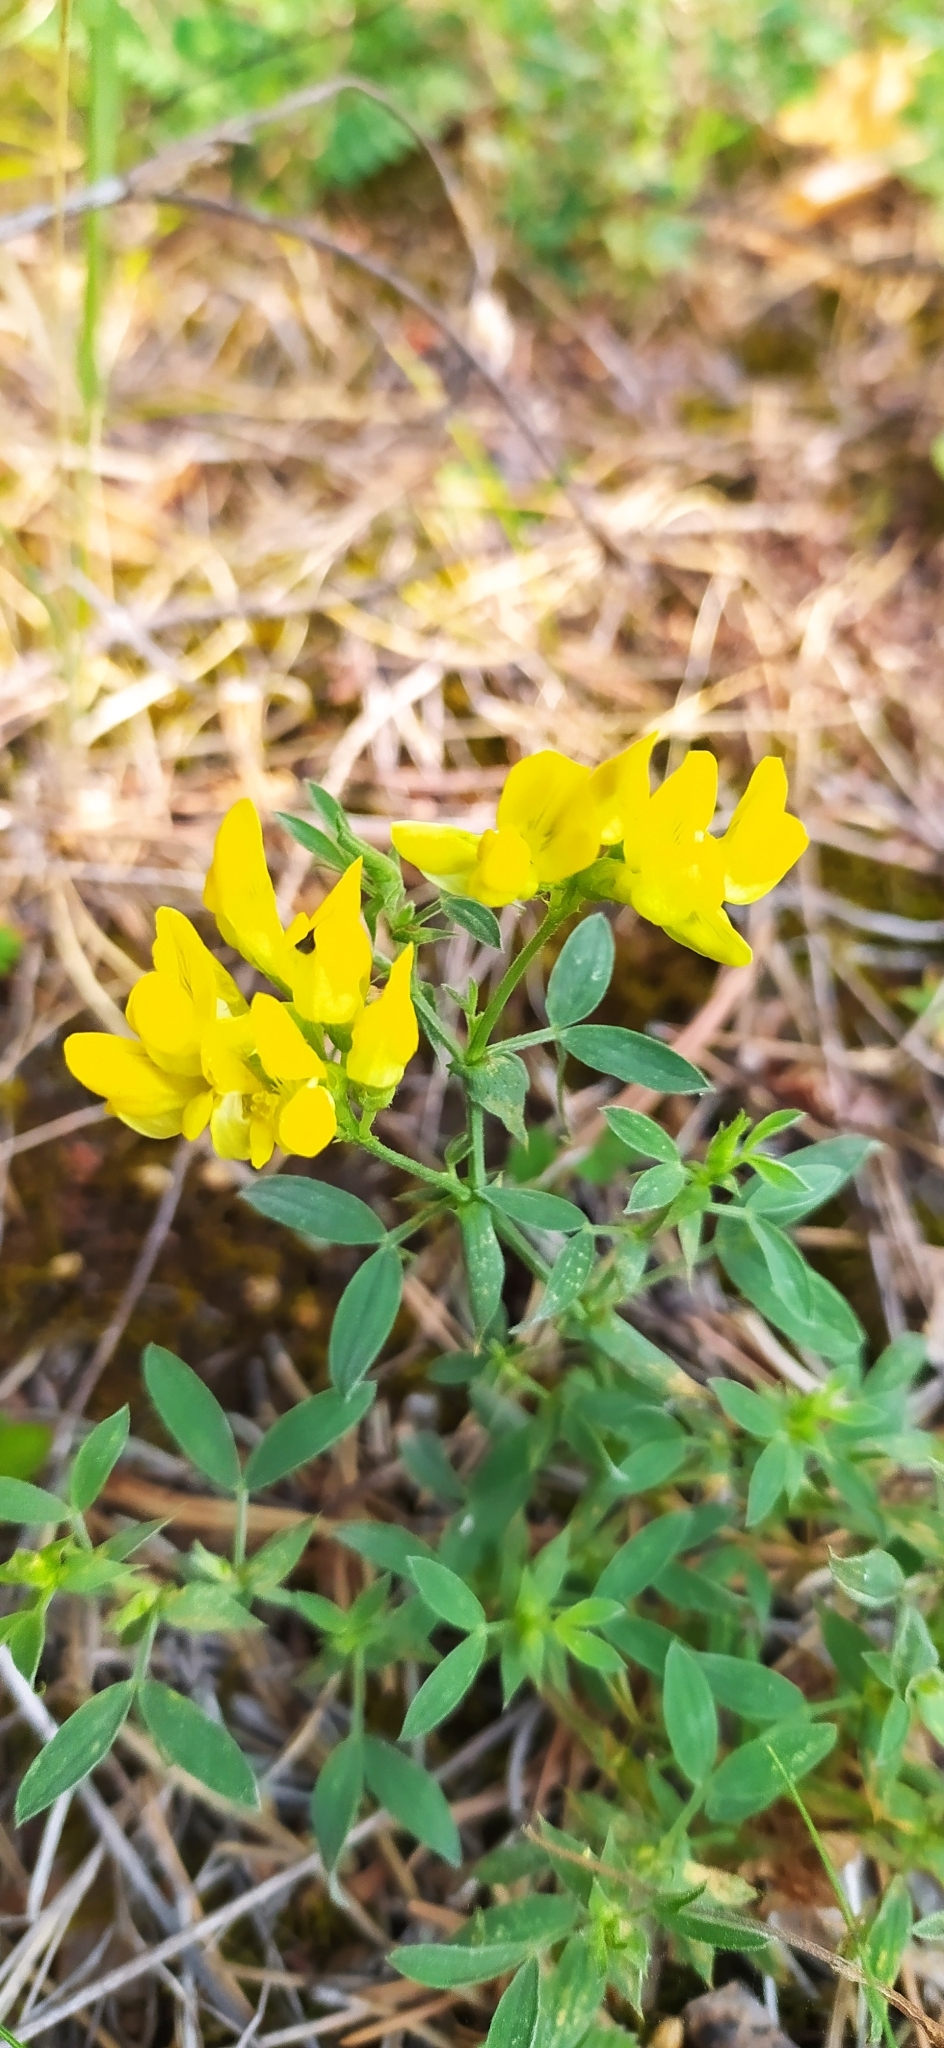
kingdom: Plantae
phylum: Tracheophyta
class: Magnoliopsida
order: Fabales
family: Fabaceae
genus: Lathyrus
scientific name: Lathyrus pratensis
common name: Meadow vetchling
